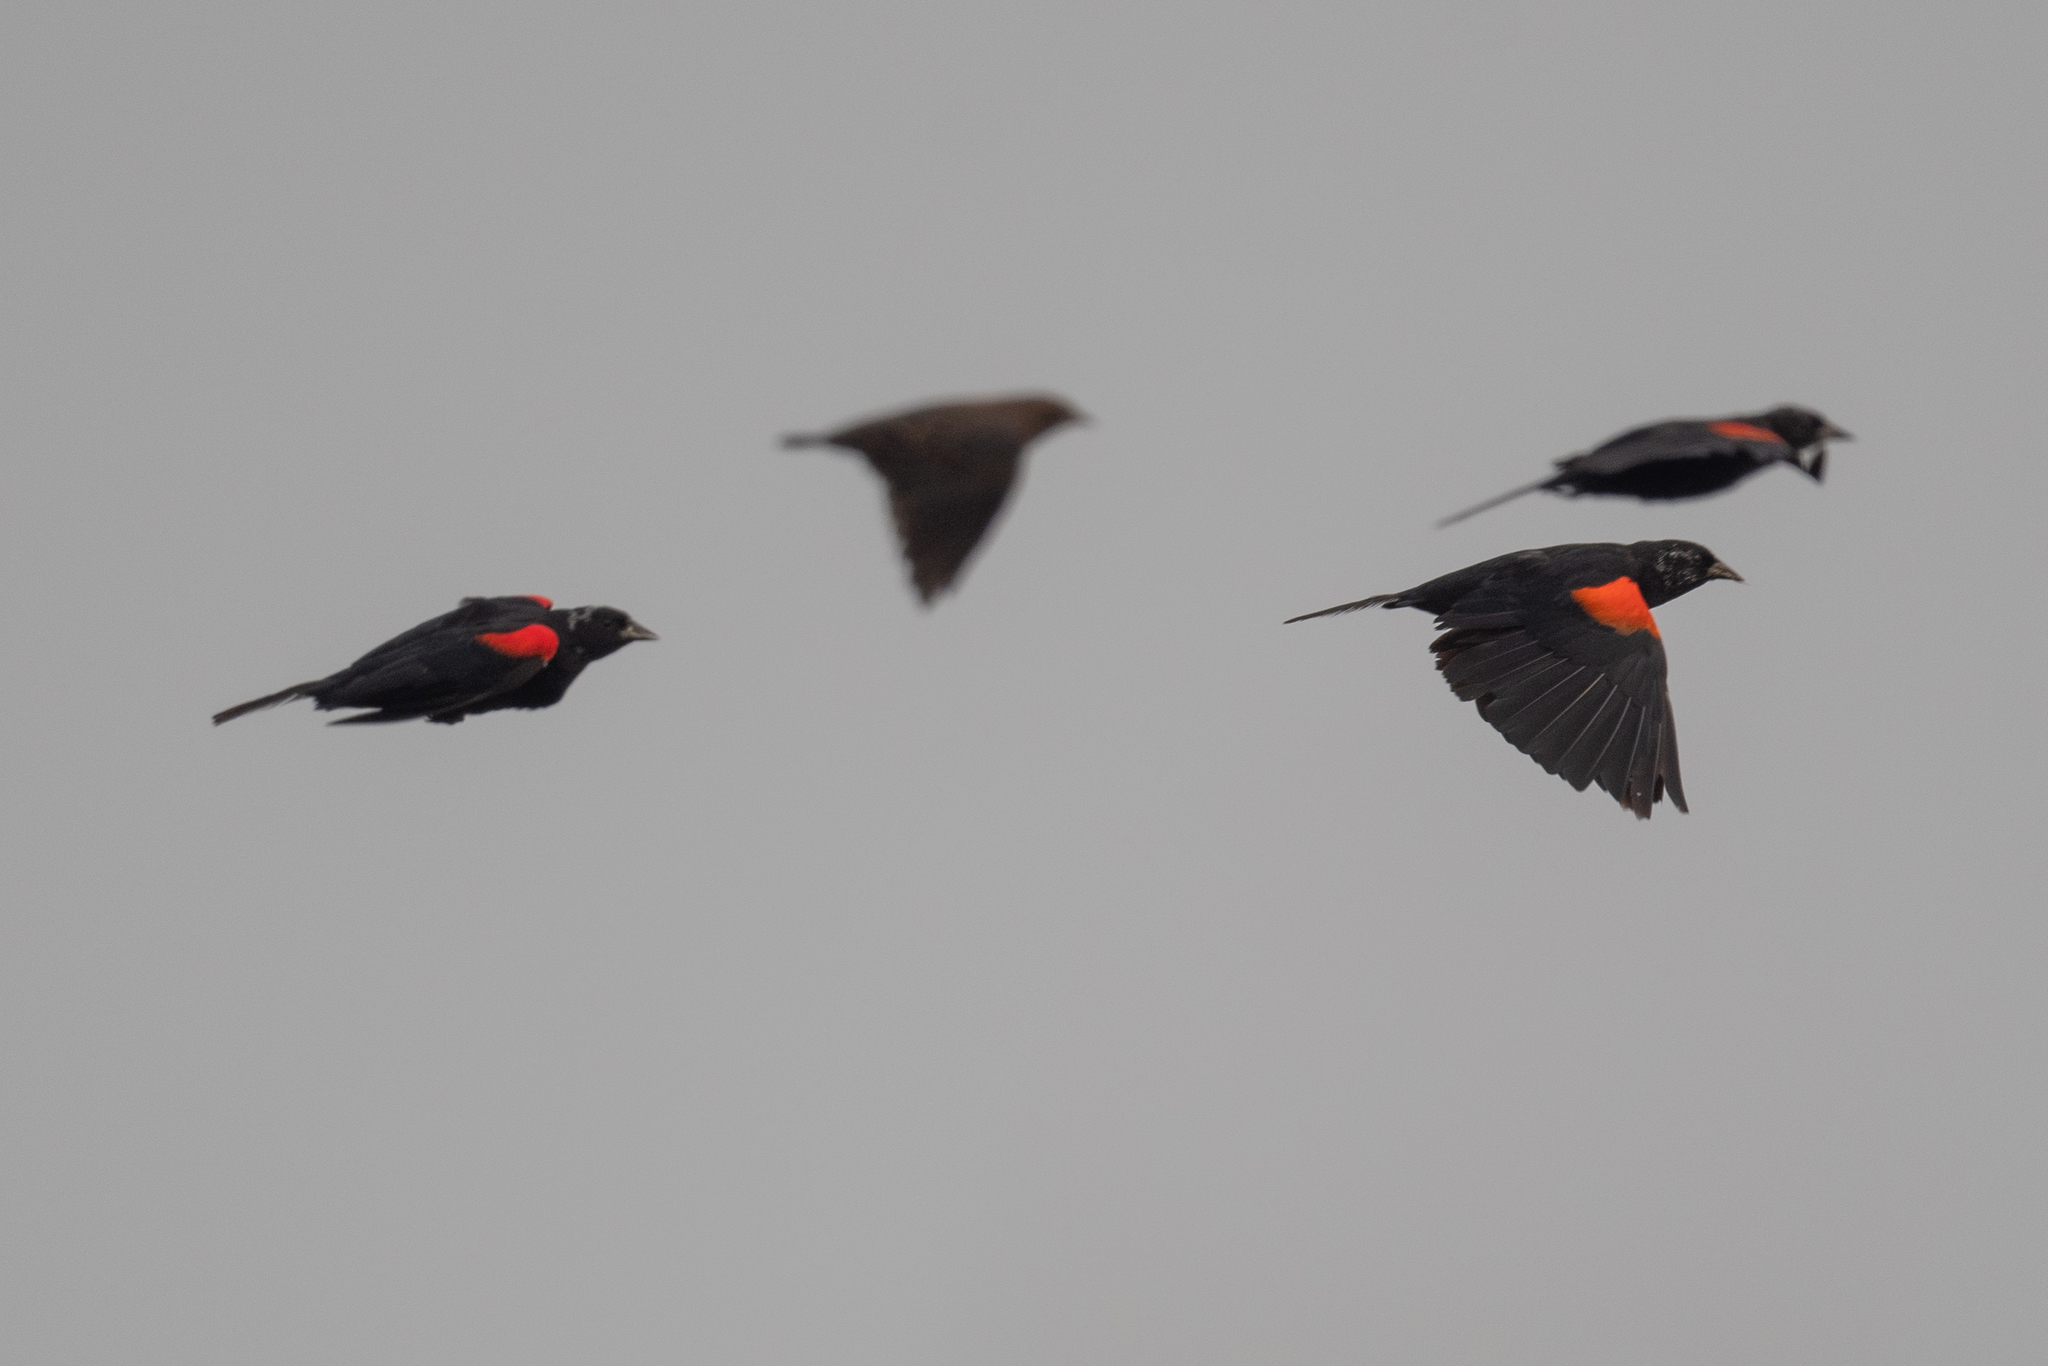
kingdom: Animalia
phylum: Chordata
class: Aves
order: Passeriformes
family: Icteridae
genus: Agelaius
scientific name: Agelaius tricolor
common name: Tricolored blackbird
